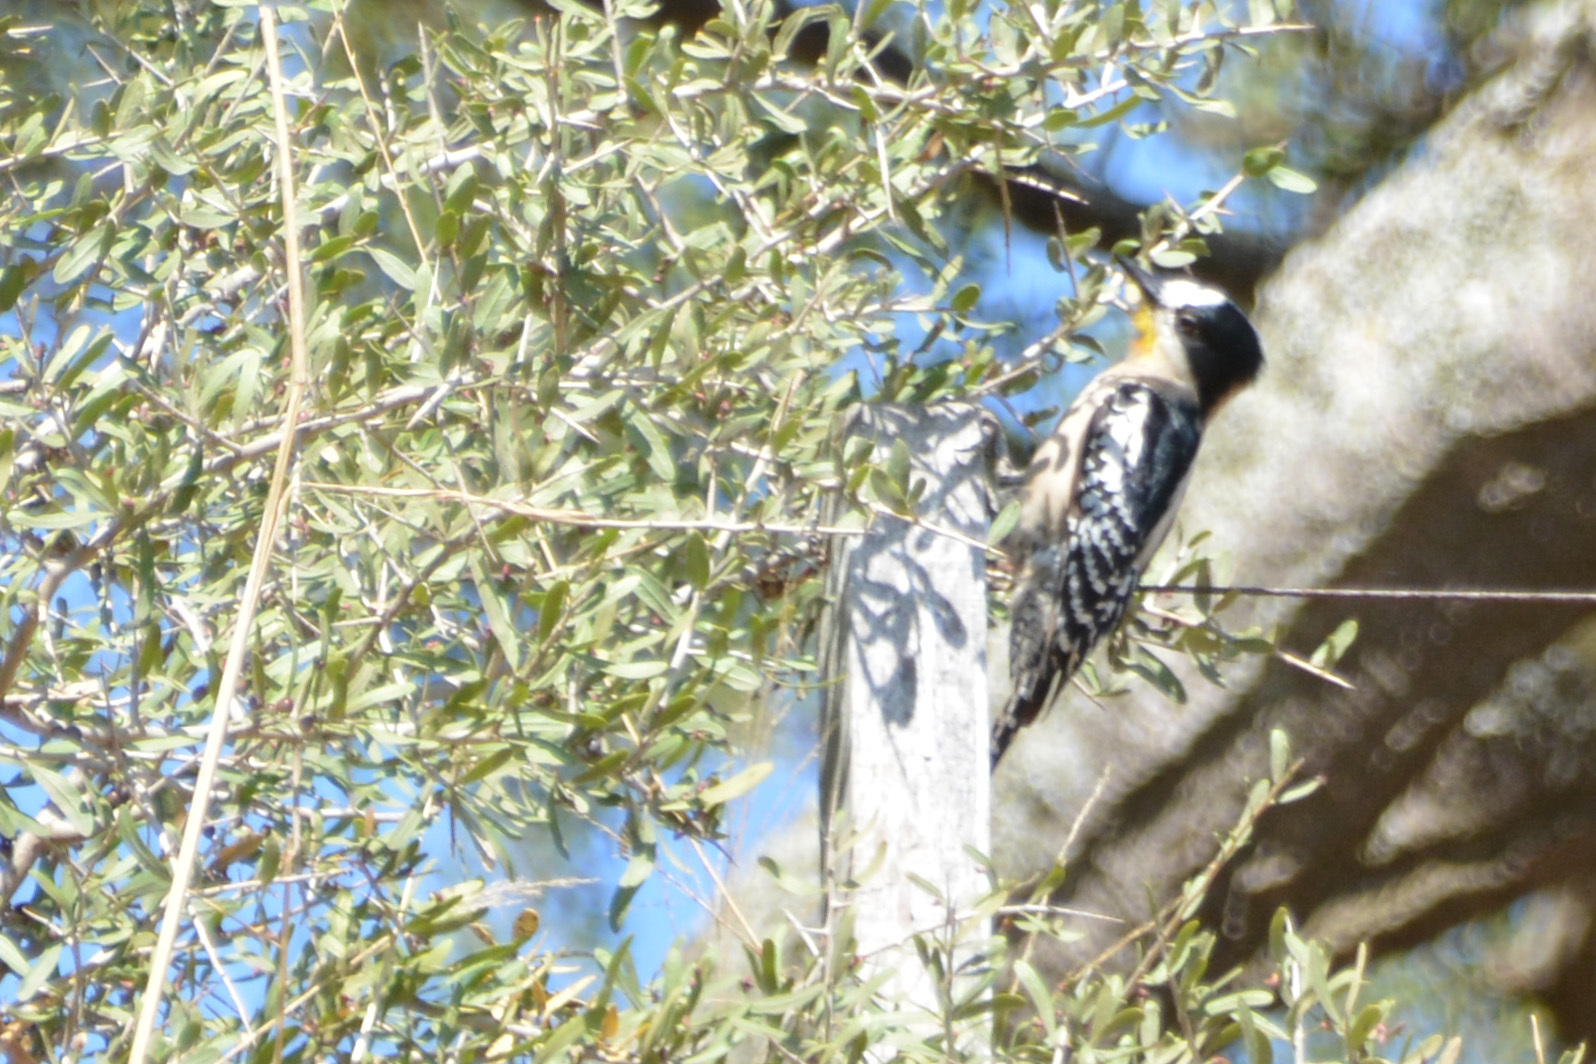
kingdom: Animalia
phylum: Chordata
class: Aves
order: Piciformes
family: Picidae
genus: Melanerpes
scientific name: Melanerpes cactorum
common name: White-fronted woodpecker
